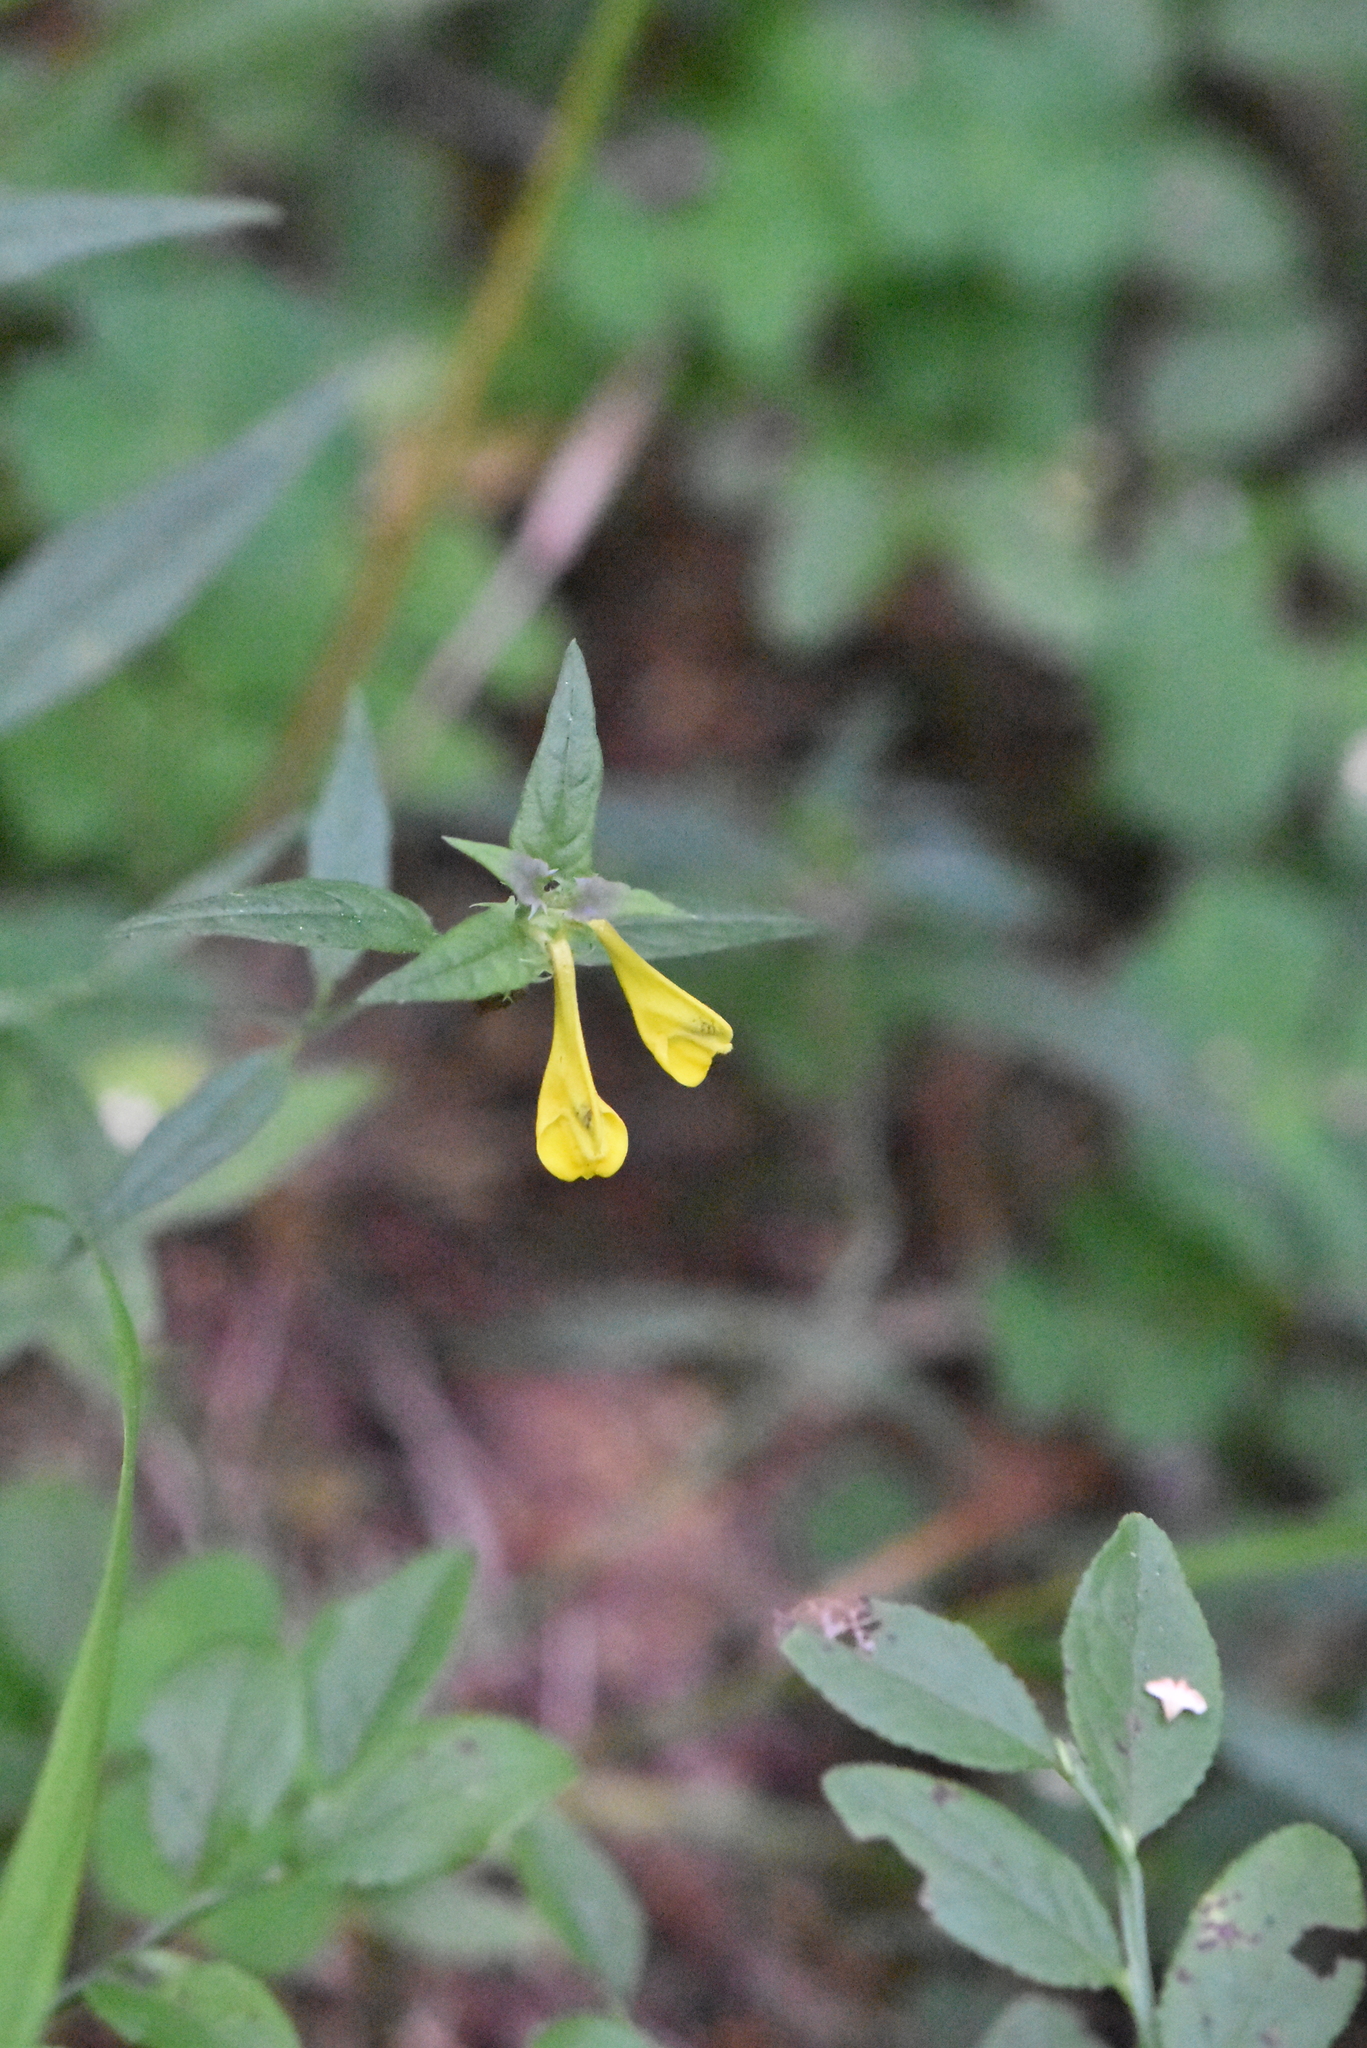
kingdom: Plantae
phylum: Tracheophyta
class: Magnoliopsida
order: Lamiales
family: Orobanchaceae
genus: Melampyrum
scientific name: Melampyrum nemorosum
